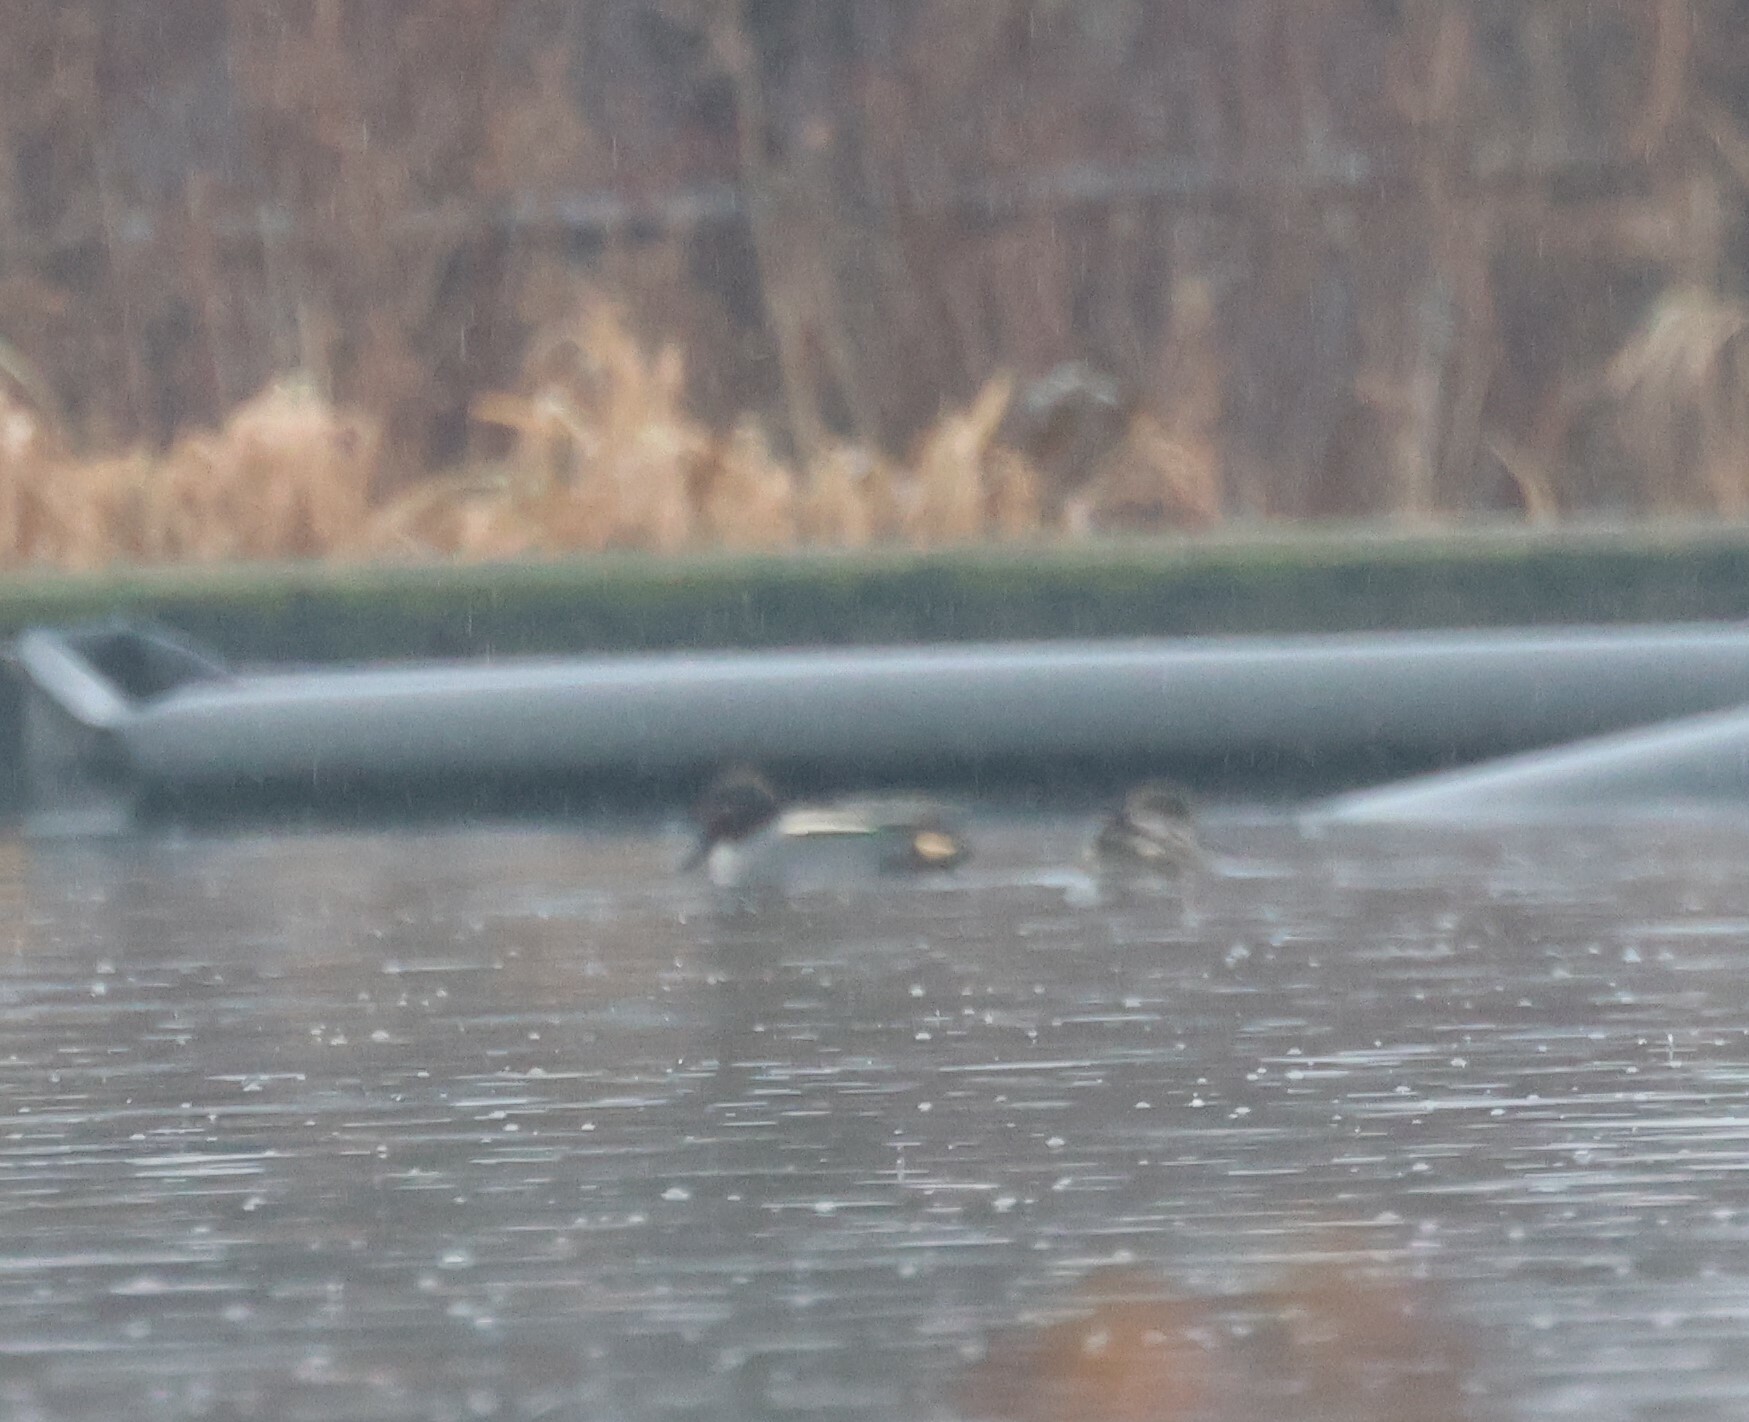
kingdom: Animalia
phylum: Chordata
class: Aves
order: Anseriformes
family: Anatidae
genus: Anas
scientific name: Anas crecca
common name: Eurasian teal
